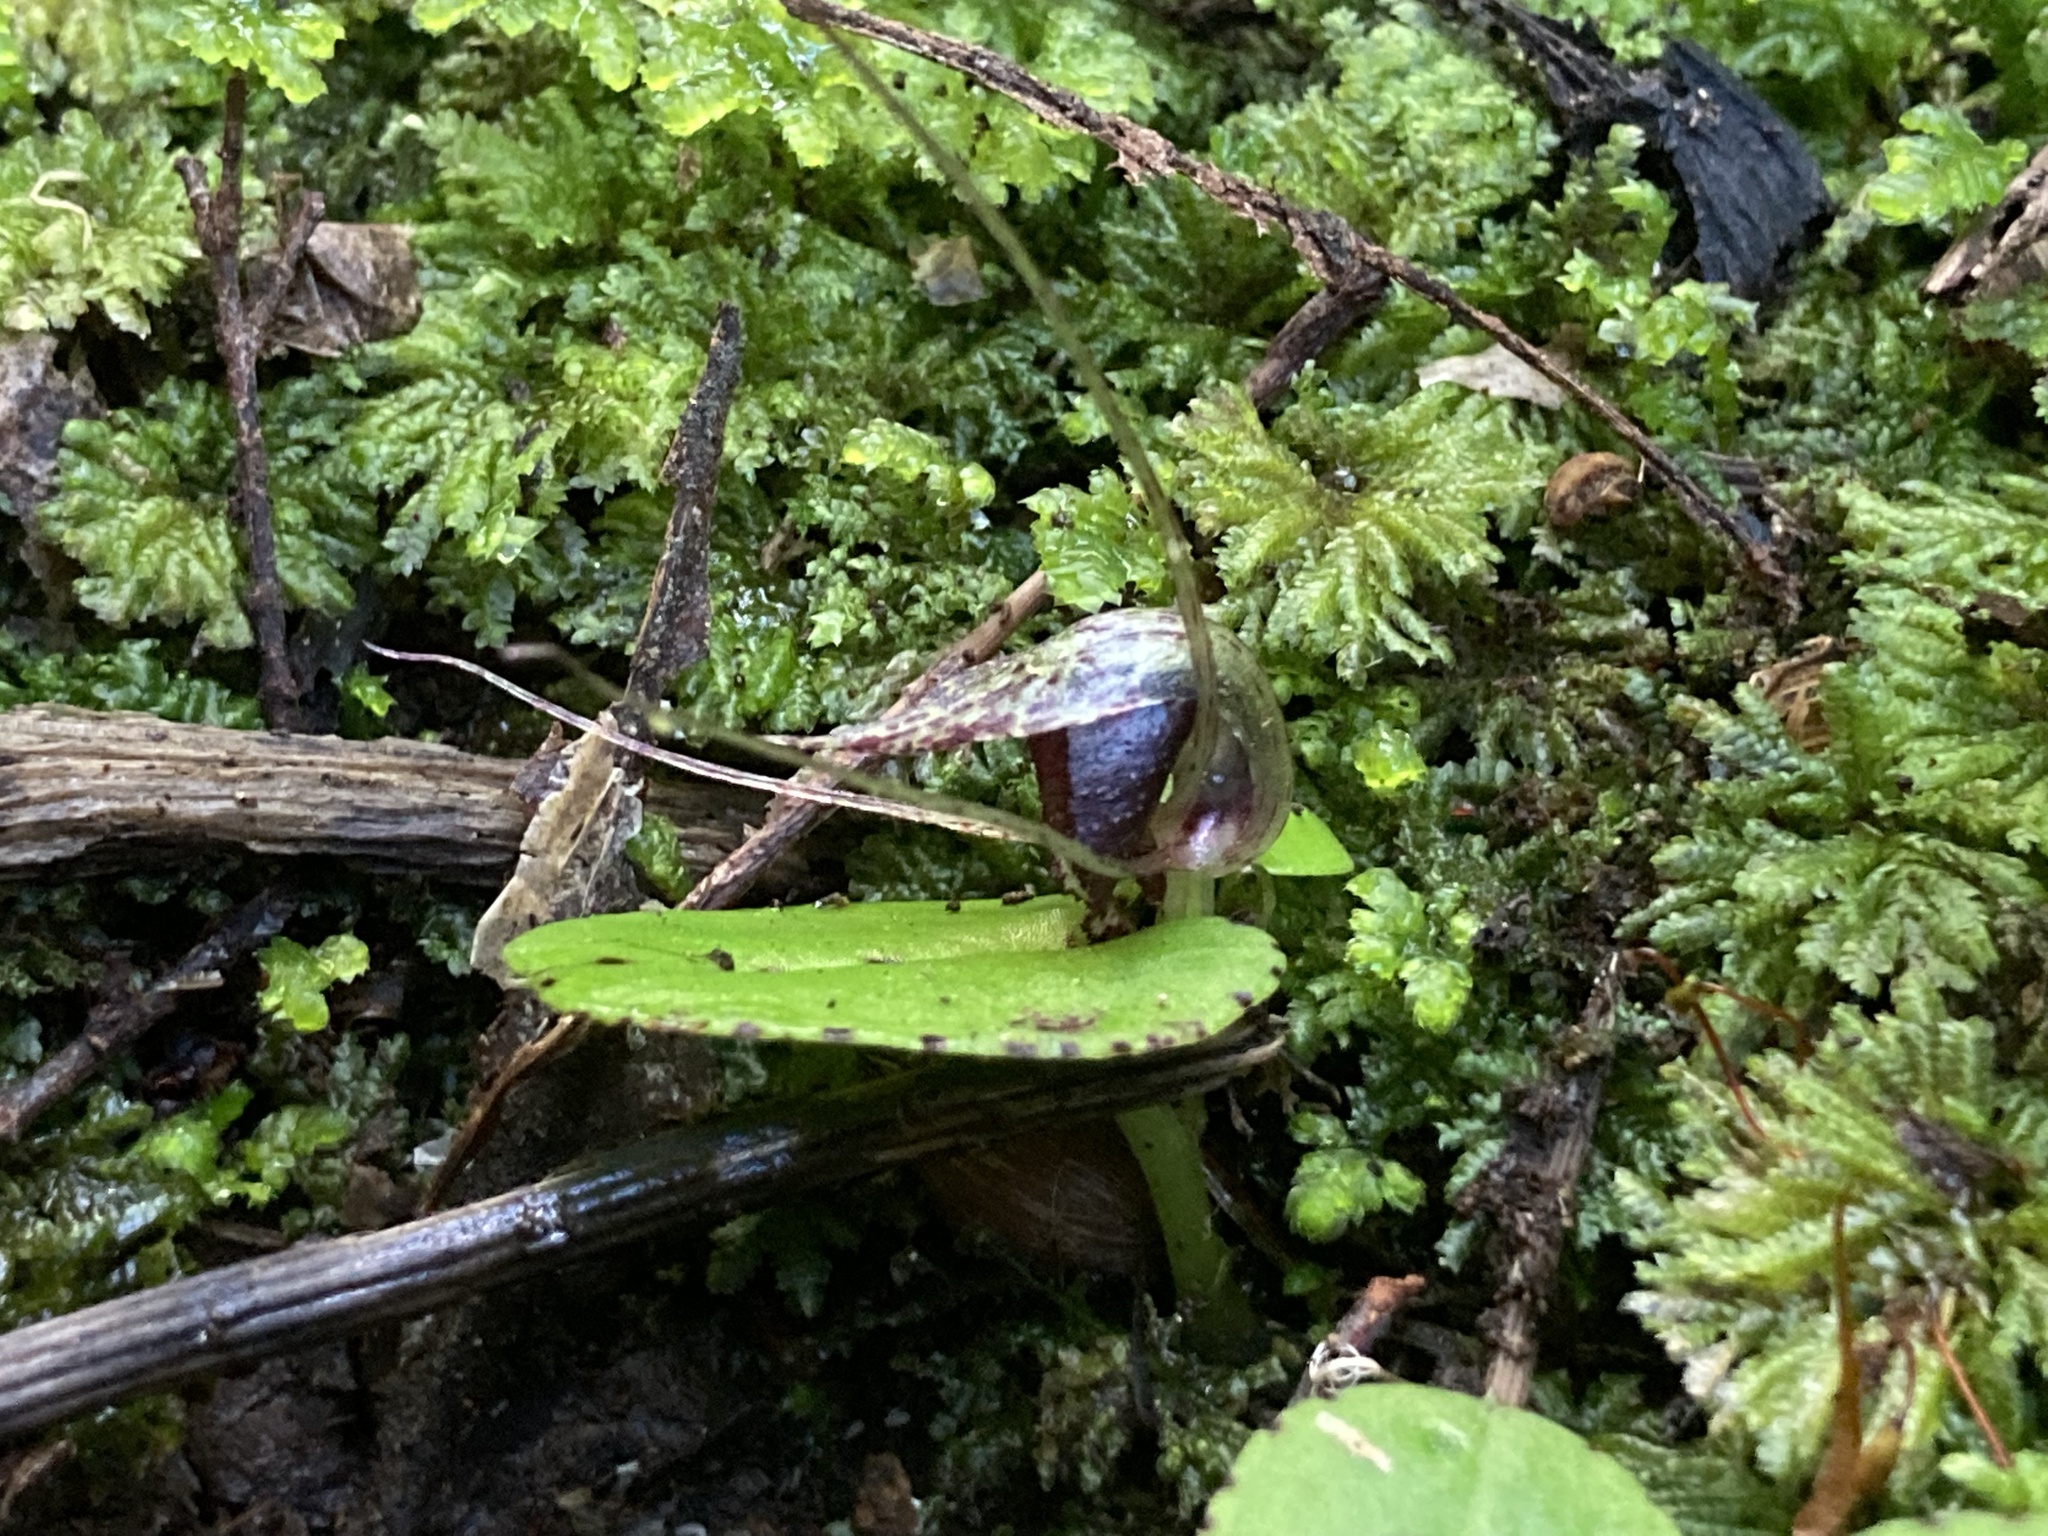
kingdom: Plantae
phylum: Tracheophyta
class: Liliopsida
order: Asparagales
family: Orchidaceae
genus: Corybas
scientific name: Corybas iridescens
